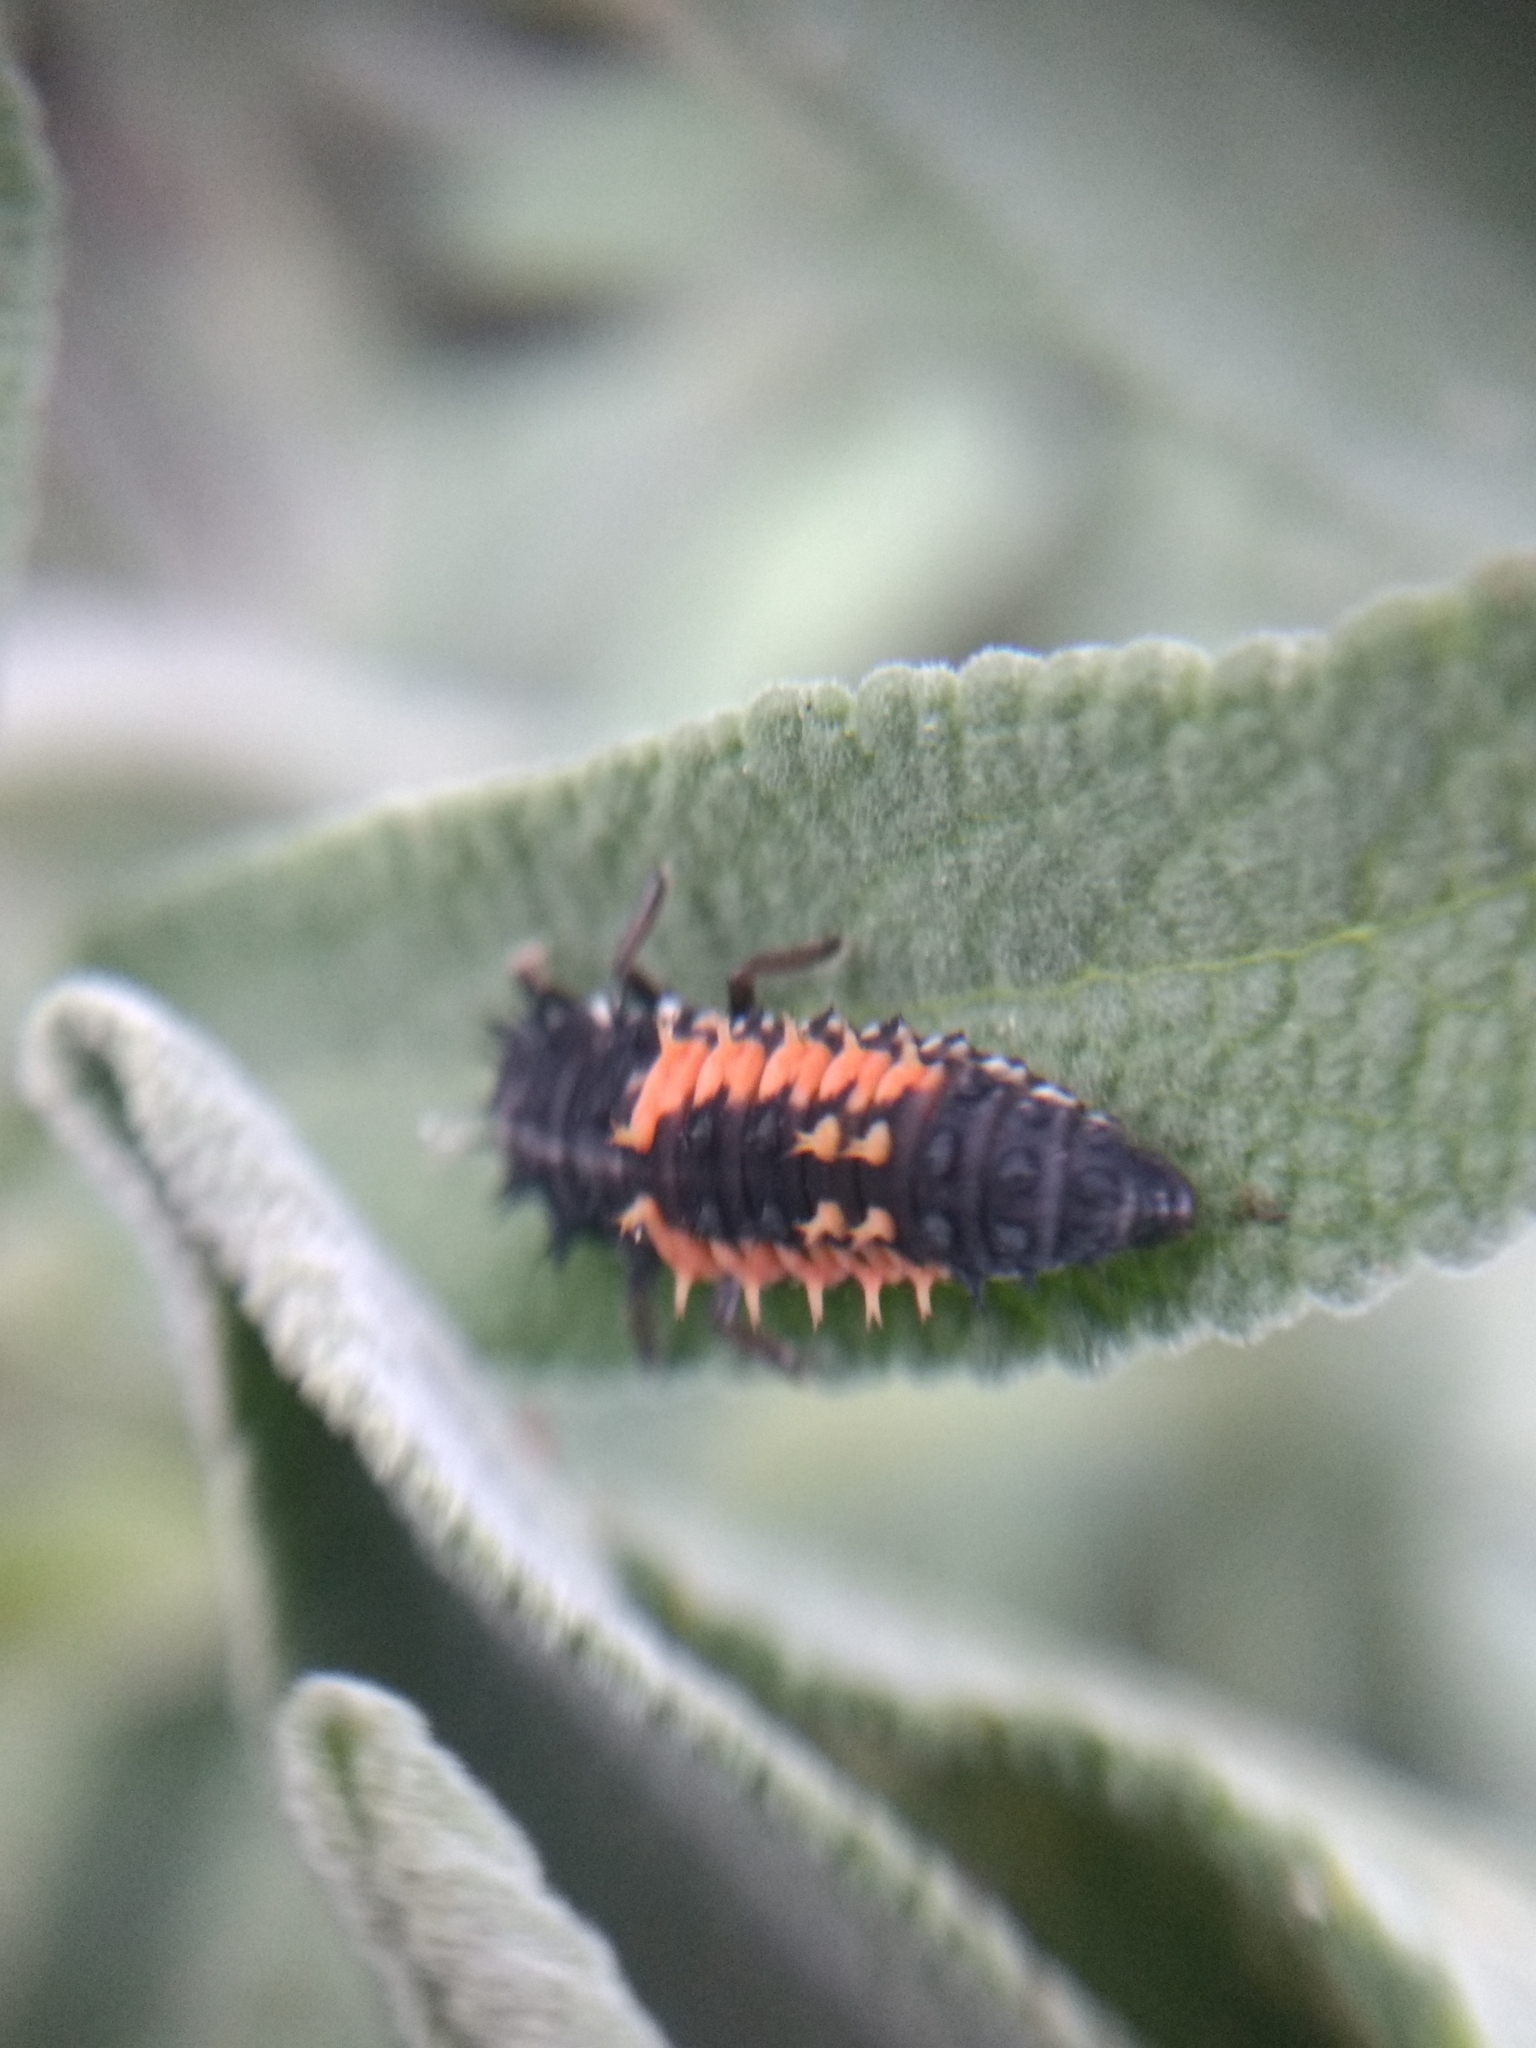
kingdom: Animalia
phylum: Arthropoda
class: Insecta
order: Coleoptera
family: Coccinellidae
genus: Harmonia
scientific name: Harmonia axyridis
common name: Harlequin ladybird
